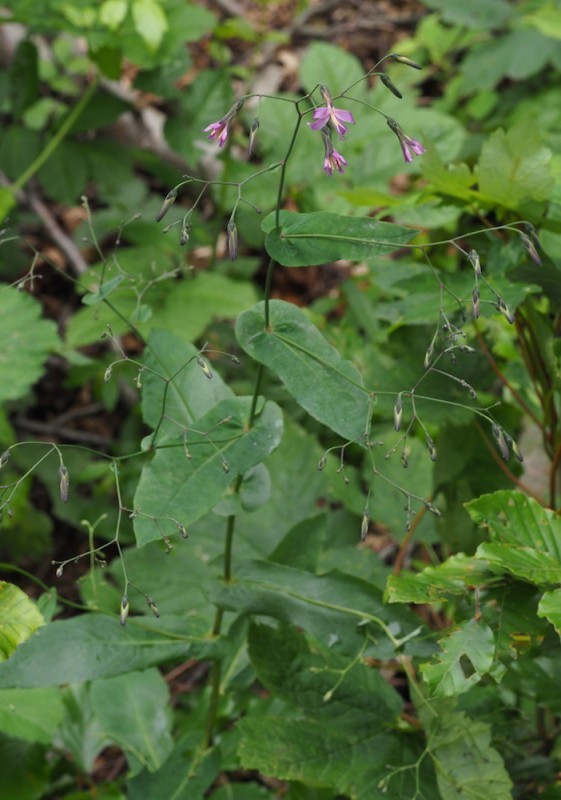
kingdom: Plantae
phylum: Tracheophyta
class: Magnoliopsida
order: Asterales
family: Asteraceae
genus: Prenanthes
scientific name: Prenanthes purpurea
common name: Purple lettuce
